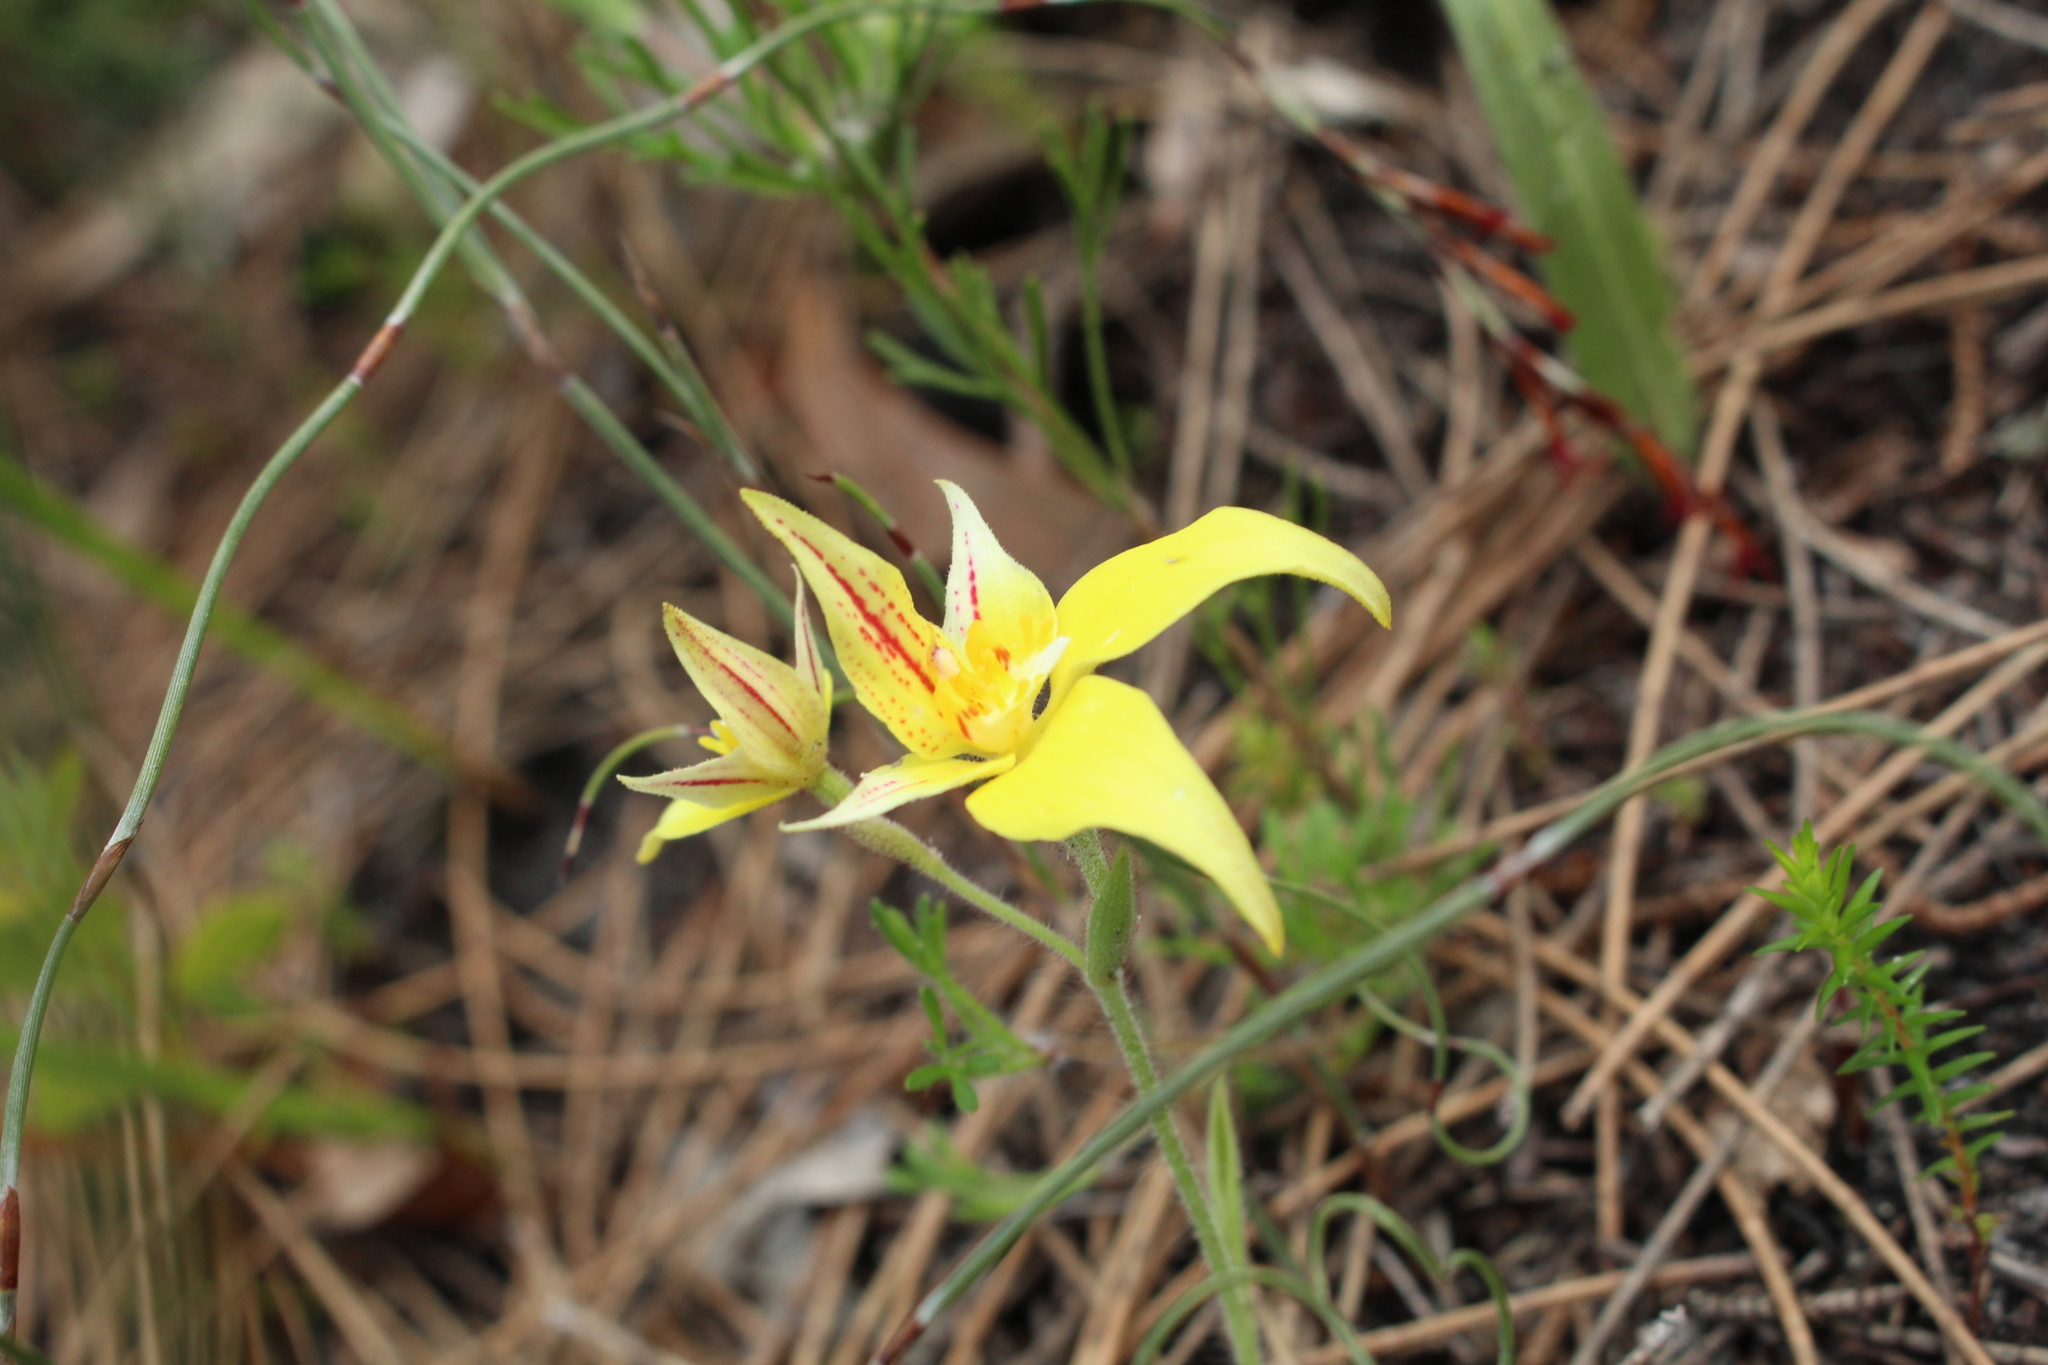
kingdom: Plantae
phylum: Tracheophyta
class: Liliopsida
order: Asparagales
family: Orchidaceae
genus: Caladenia
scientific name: Caladenia flava
